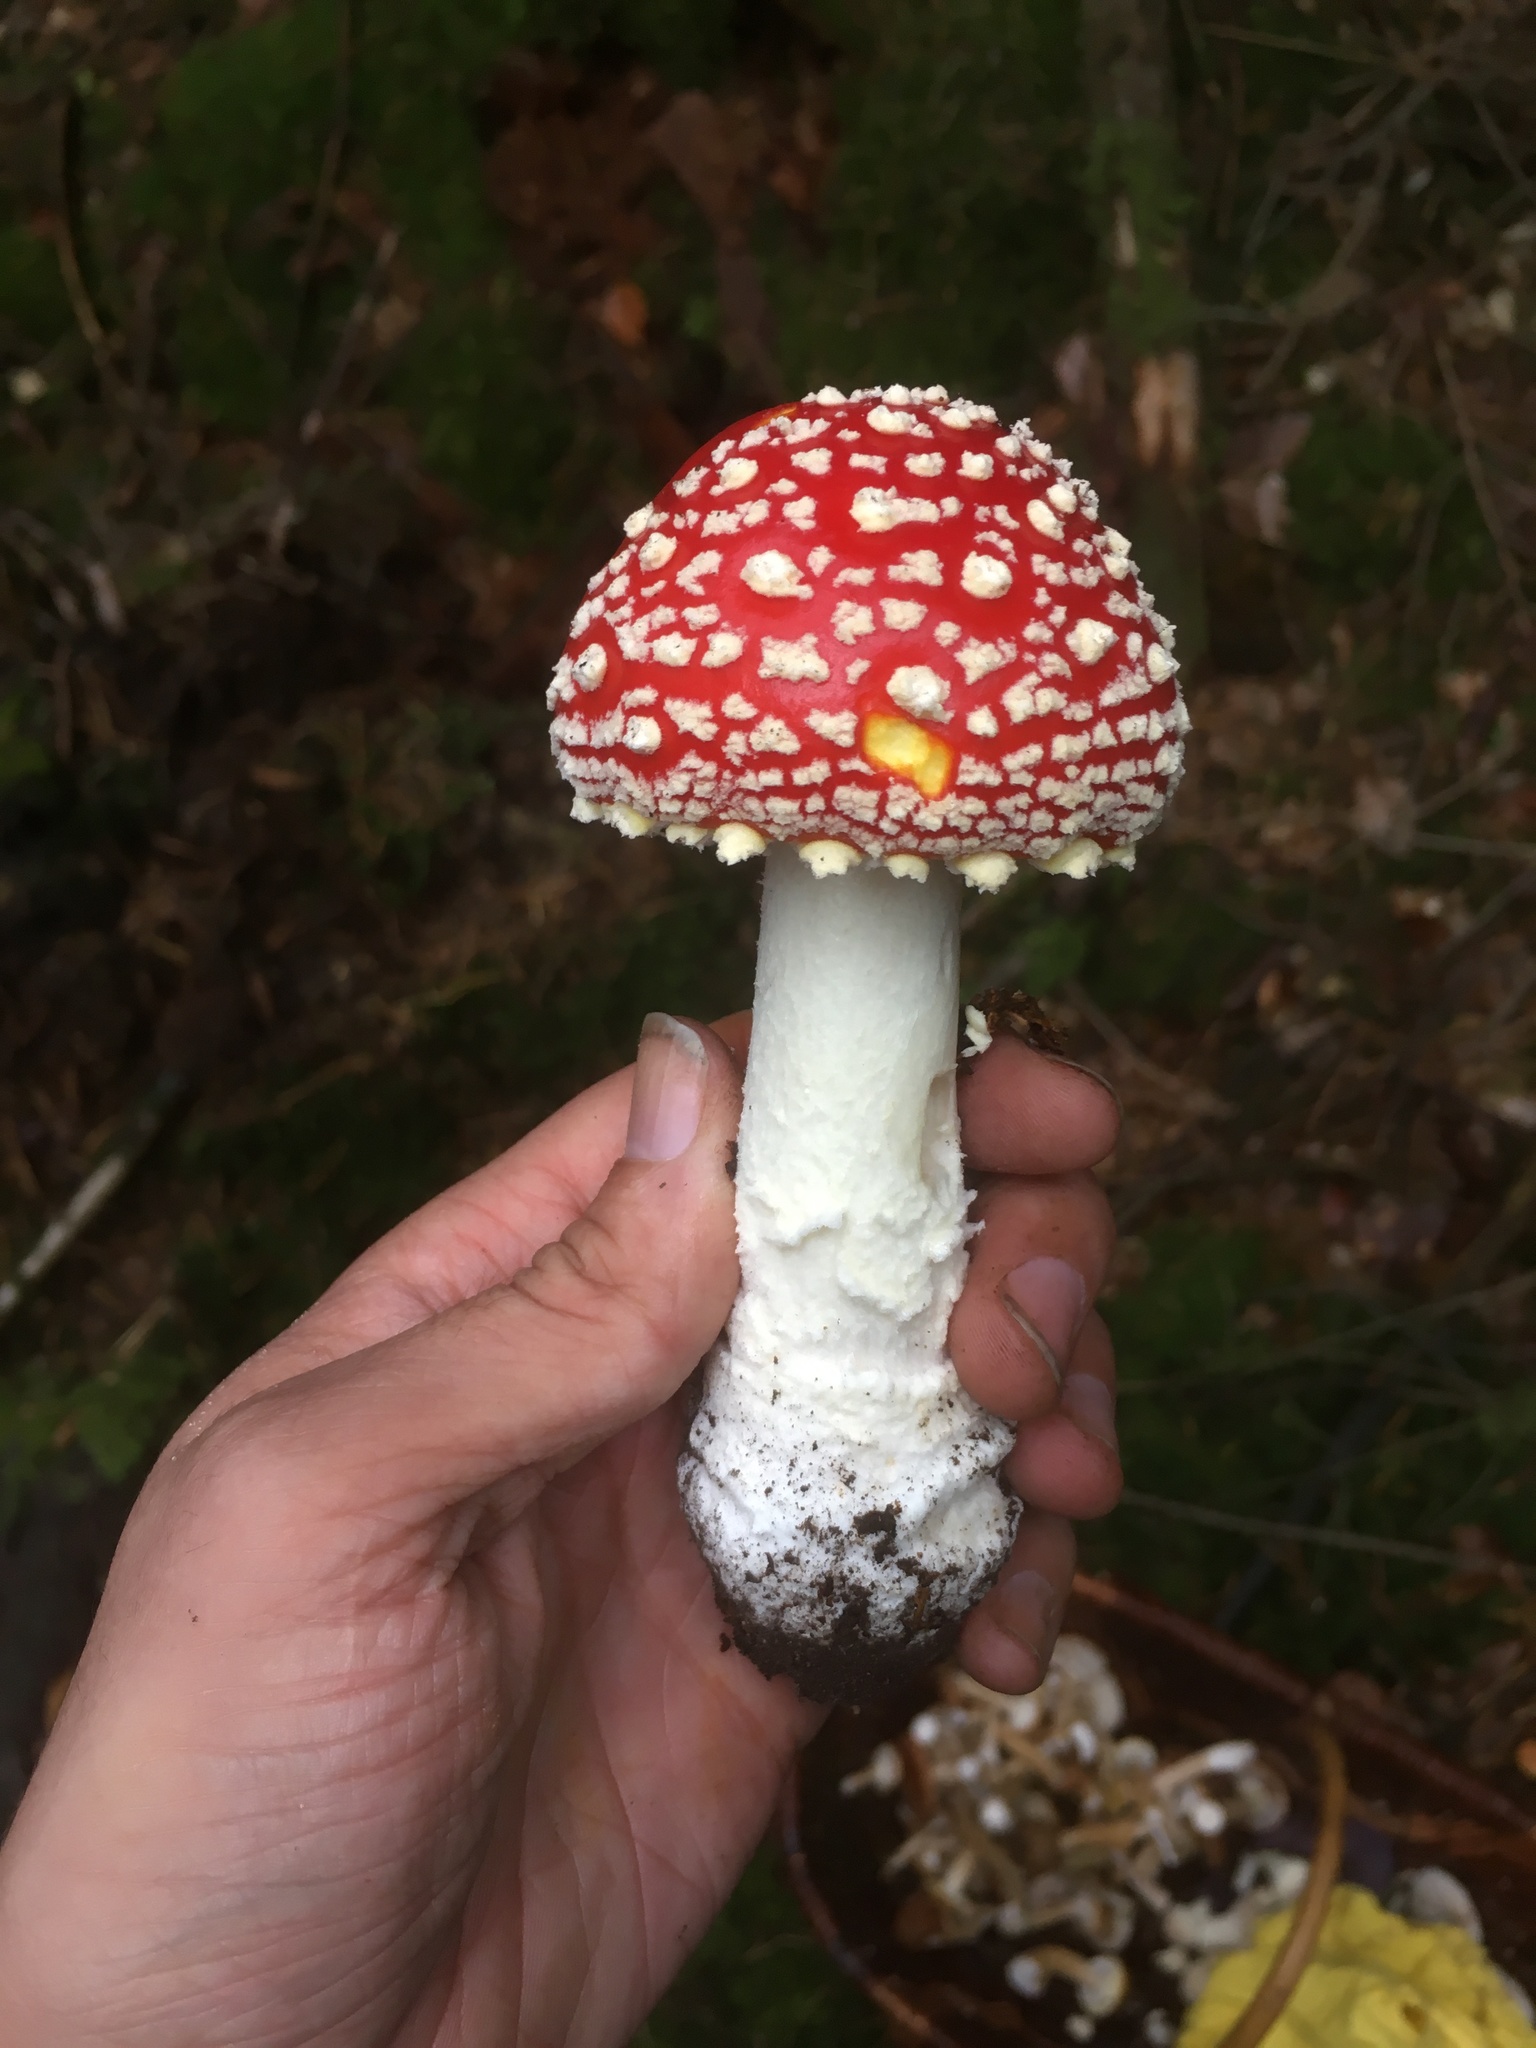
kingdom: Fungi
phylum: Basidiomycota
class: Agaricomycetes
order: Agaricales
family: Amanitaceae
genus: Amanita
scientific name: Amanita muscaria
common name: Fly agaric
